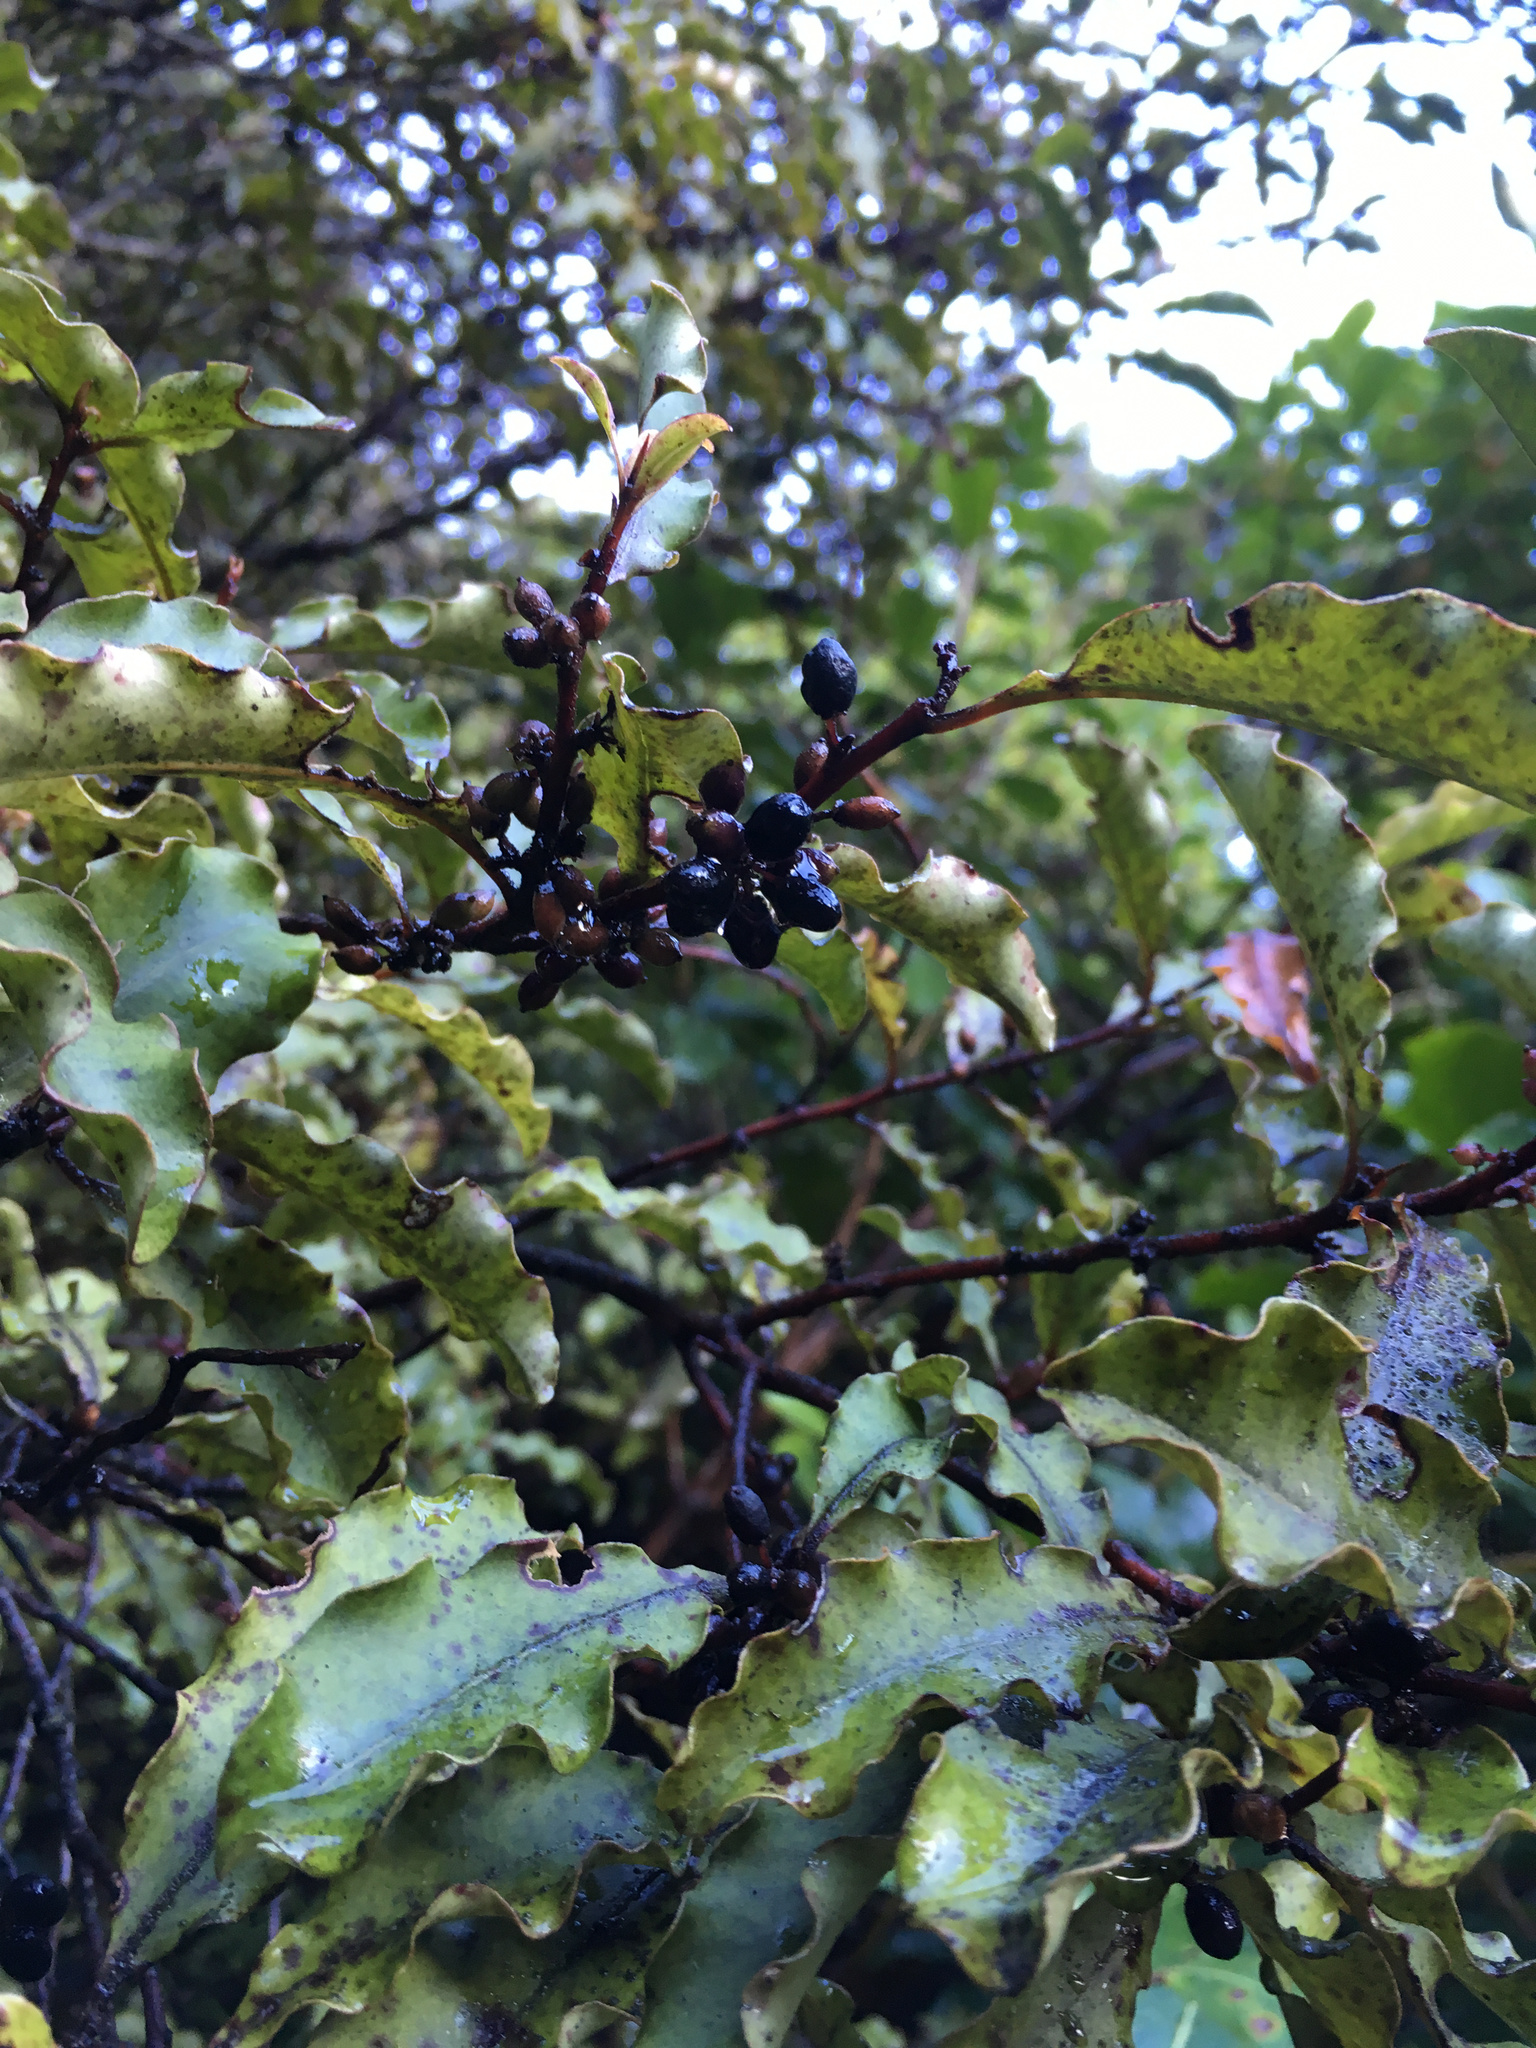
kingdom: Plantae
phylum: Tracheophyta
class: Magnoliopsida
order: Ericales
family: Primulaceae
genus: Myrsine
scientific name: Myrsine australis
